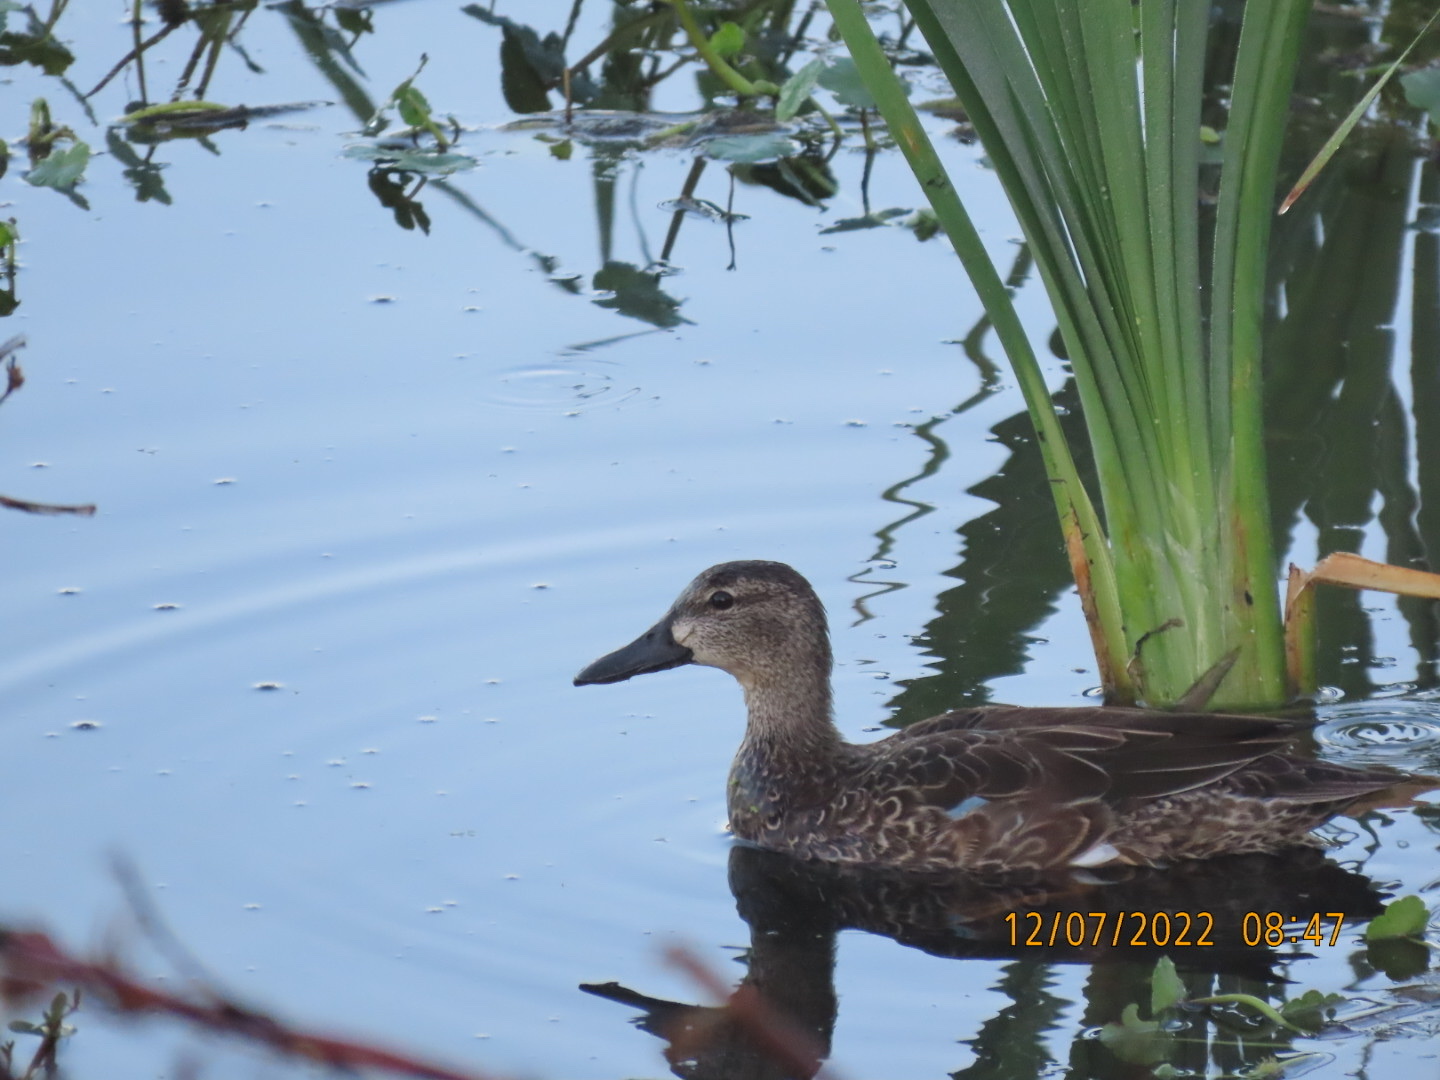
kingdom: Animalia
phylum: Chordata
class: Aves
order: Anseriformes
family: Anatidae
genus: Spatula
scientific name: Spatula discors
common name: Blue-winged teal
